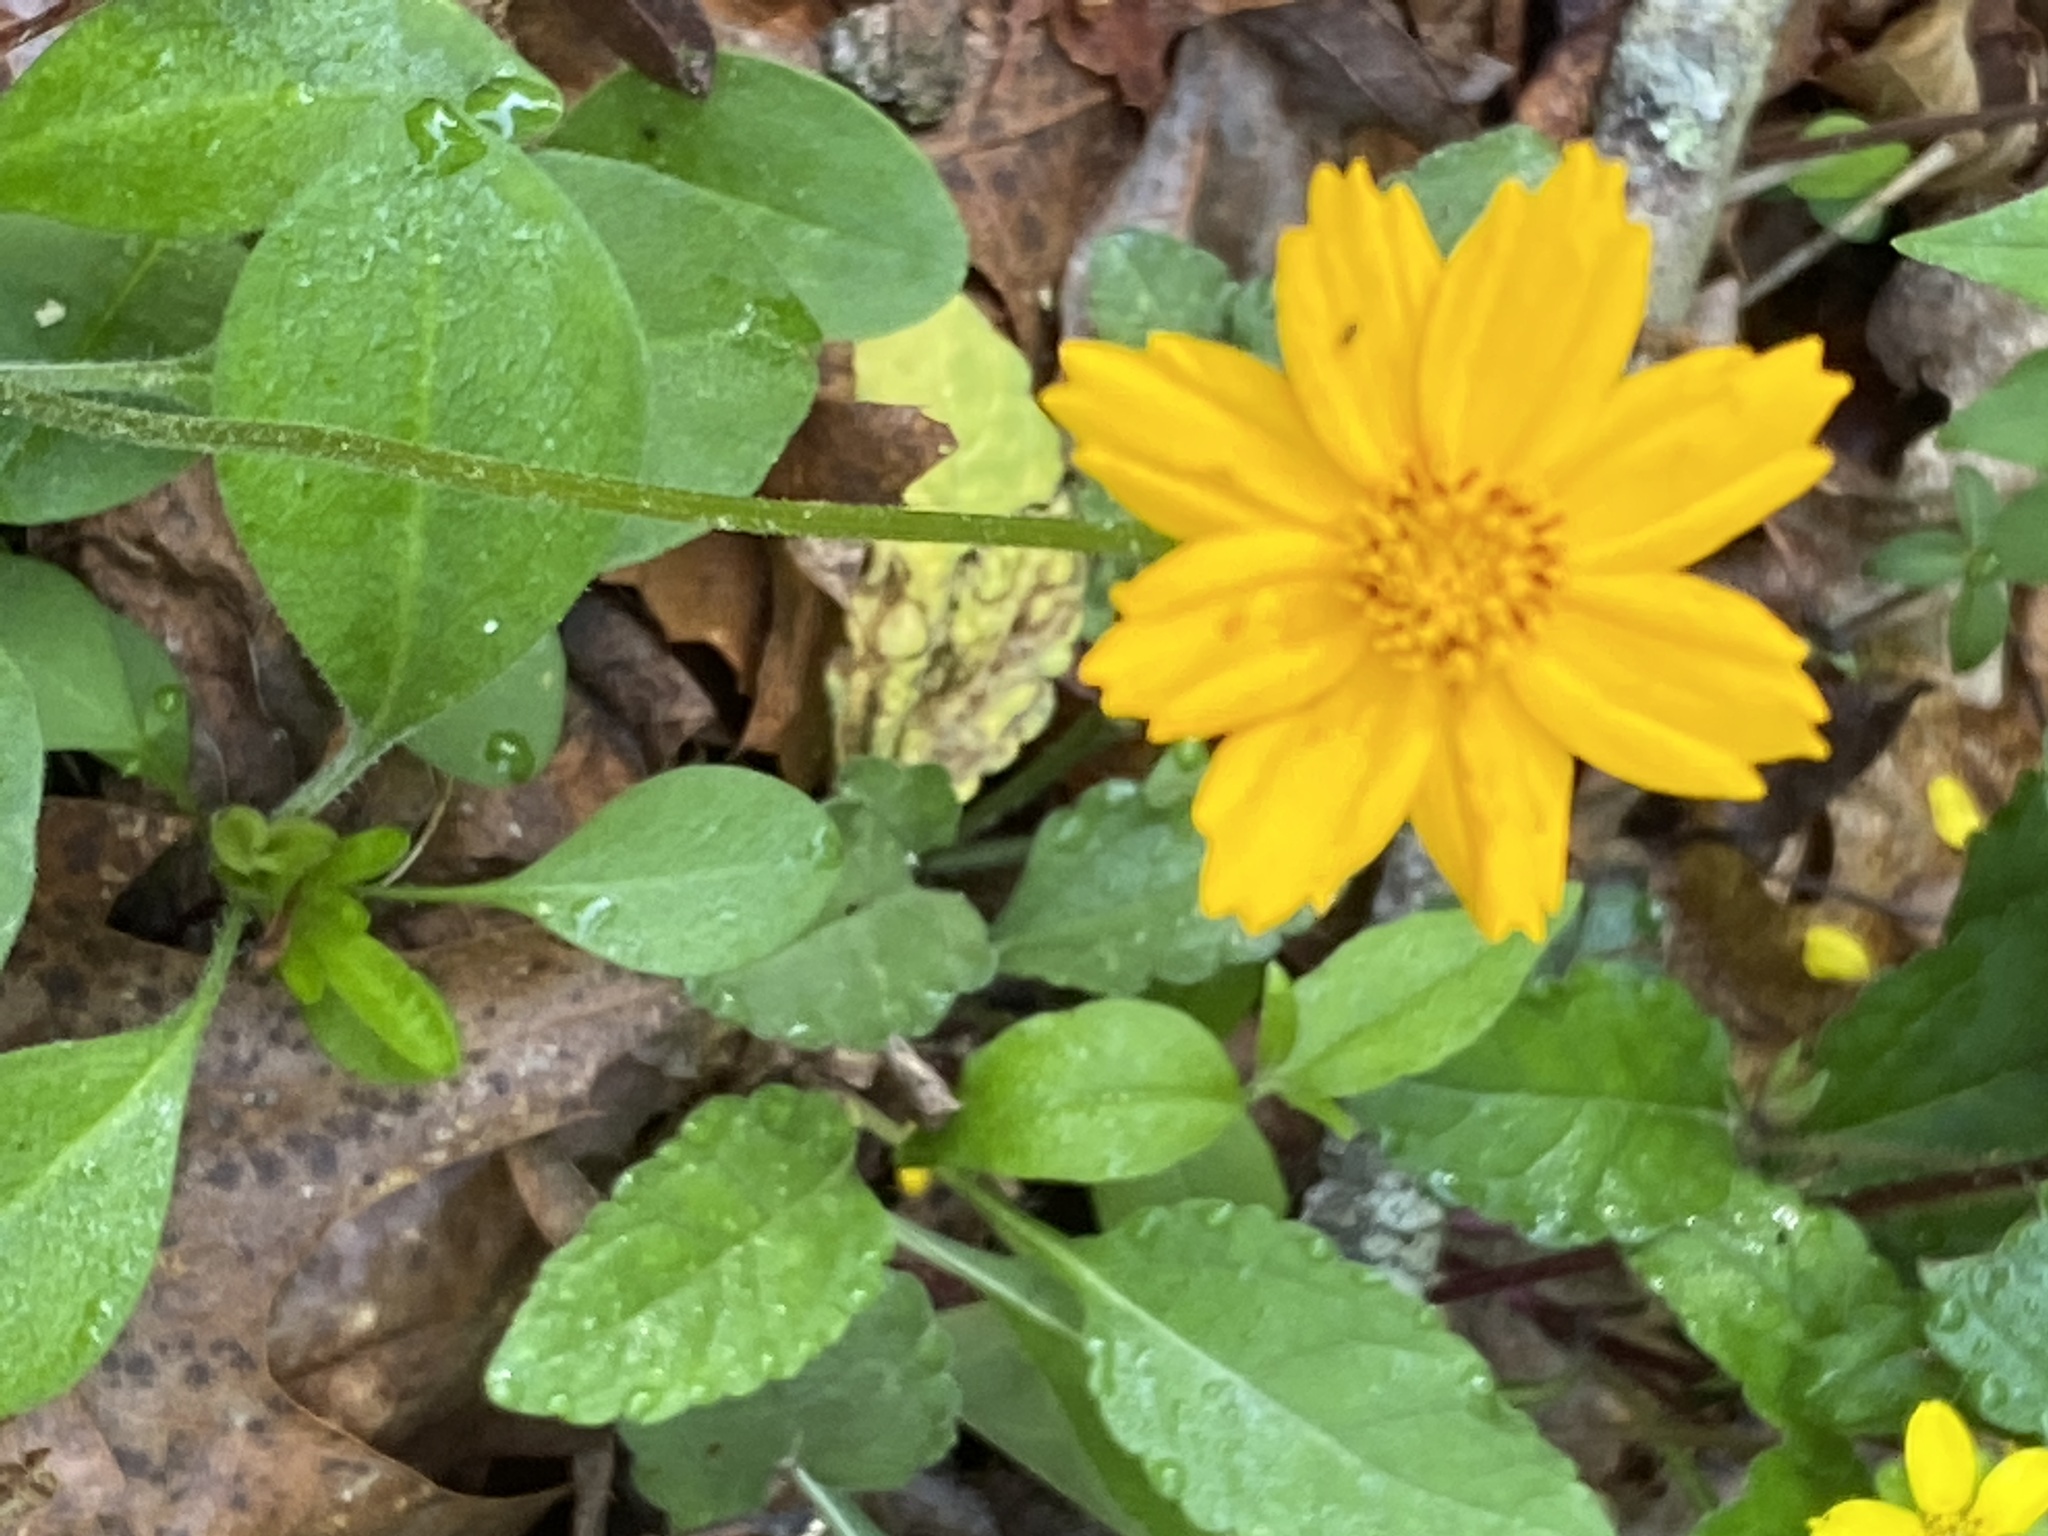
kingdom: Plantae
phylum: Tracheophyta
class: Magnoliopsida
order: Asterales
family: Asteraceae
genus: Coreopsis
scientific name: Coreopsis auriculata
